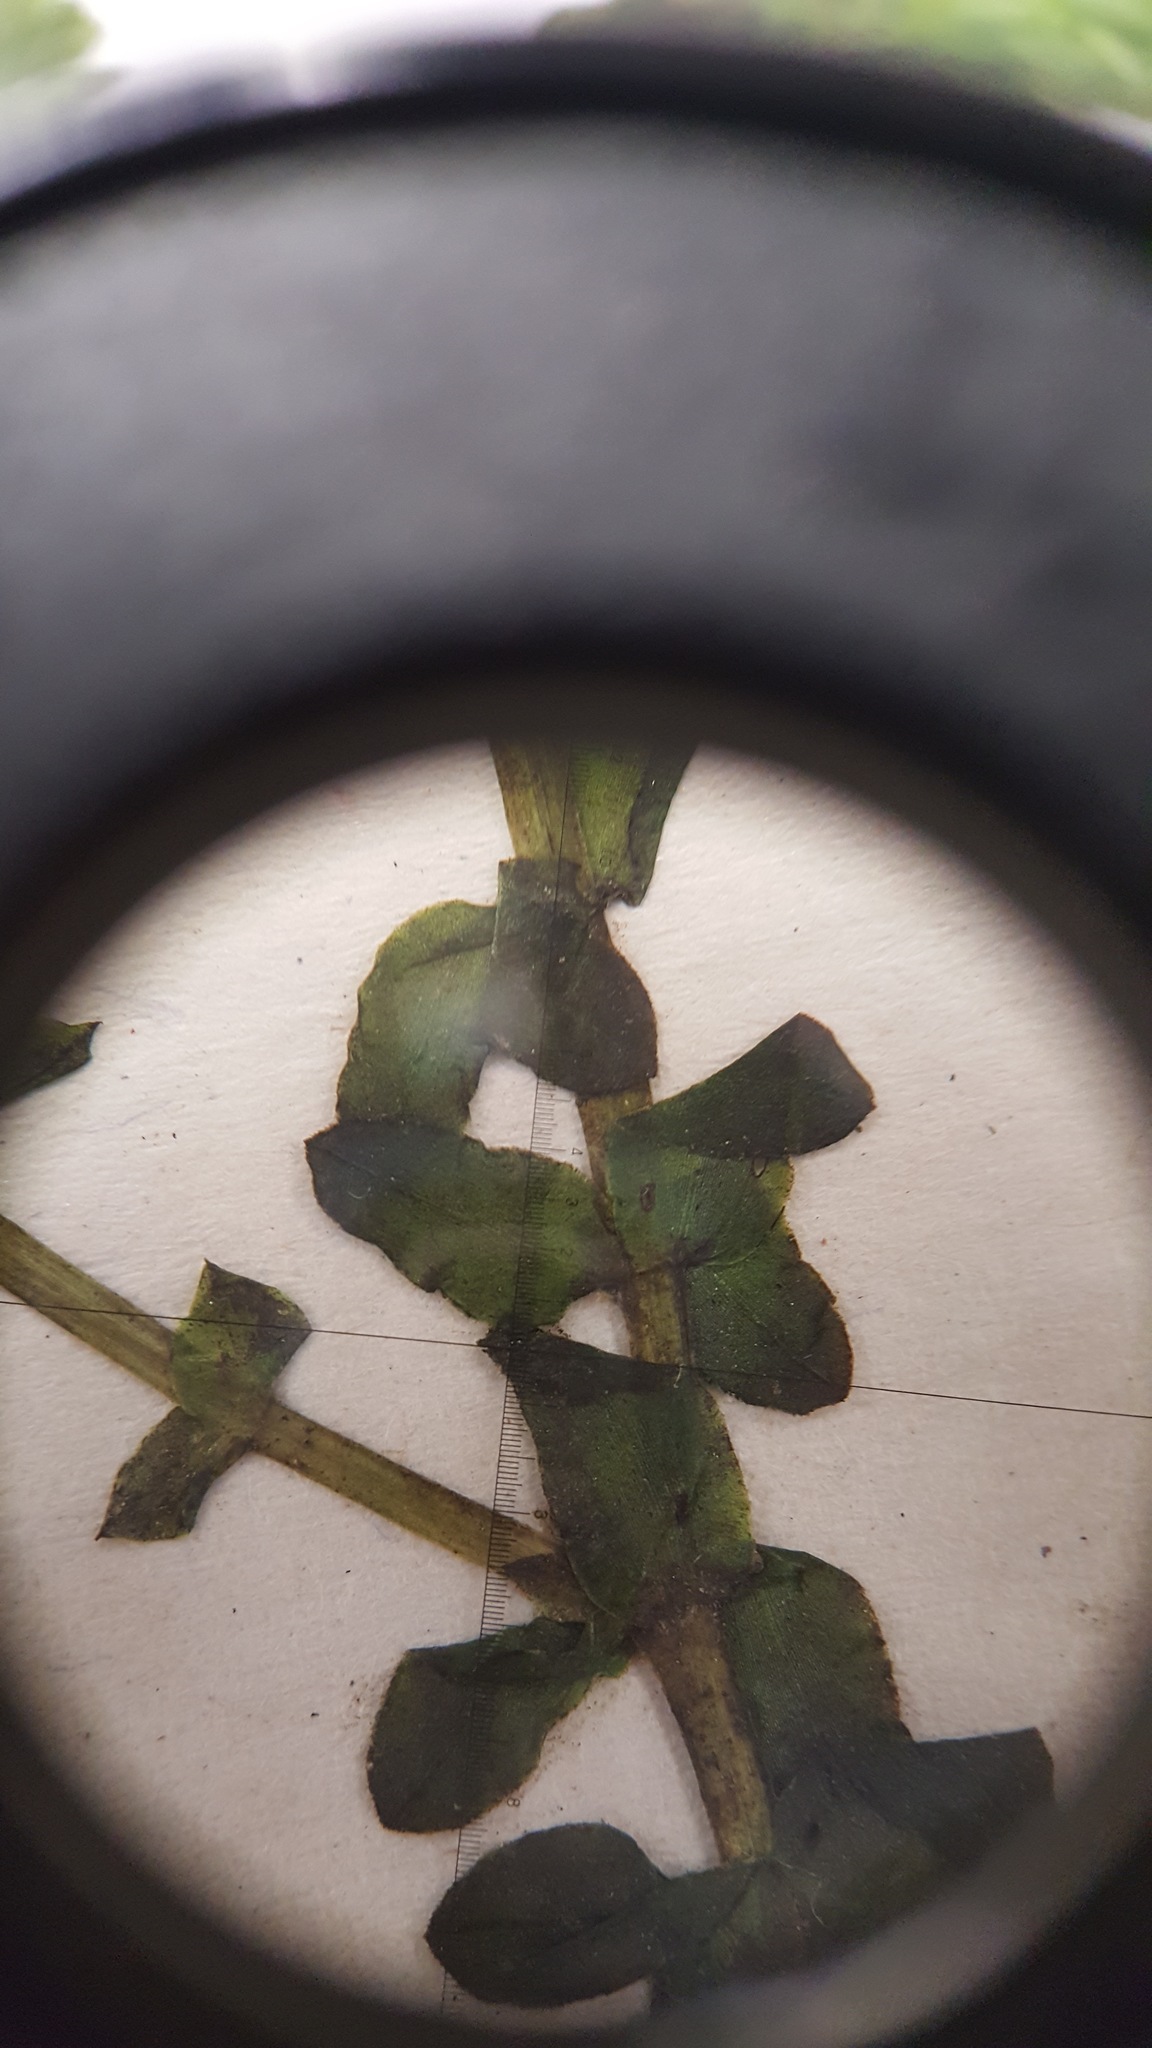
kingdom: Plantae
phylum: Tracheophyta
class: Liliopsida
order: Alismatales
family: Hydrocharitaceae
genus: Elodea
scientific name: Elodea canadensis
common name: Canadian waterweed
